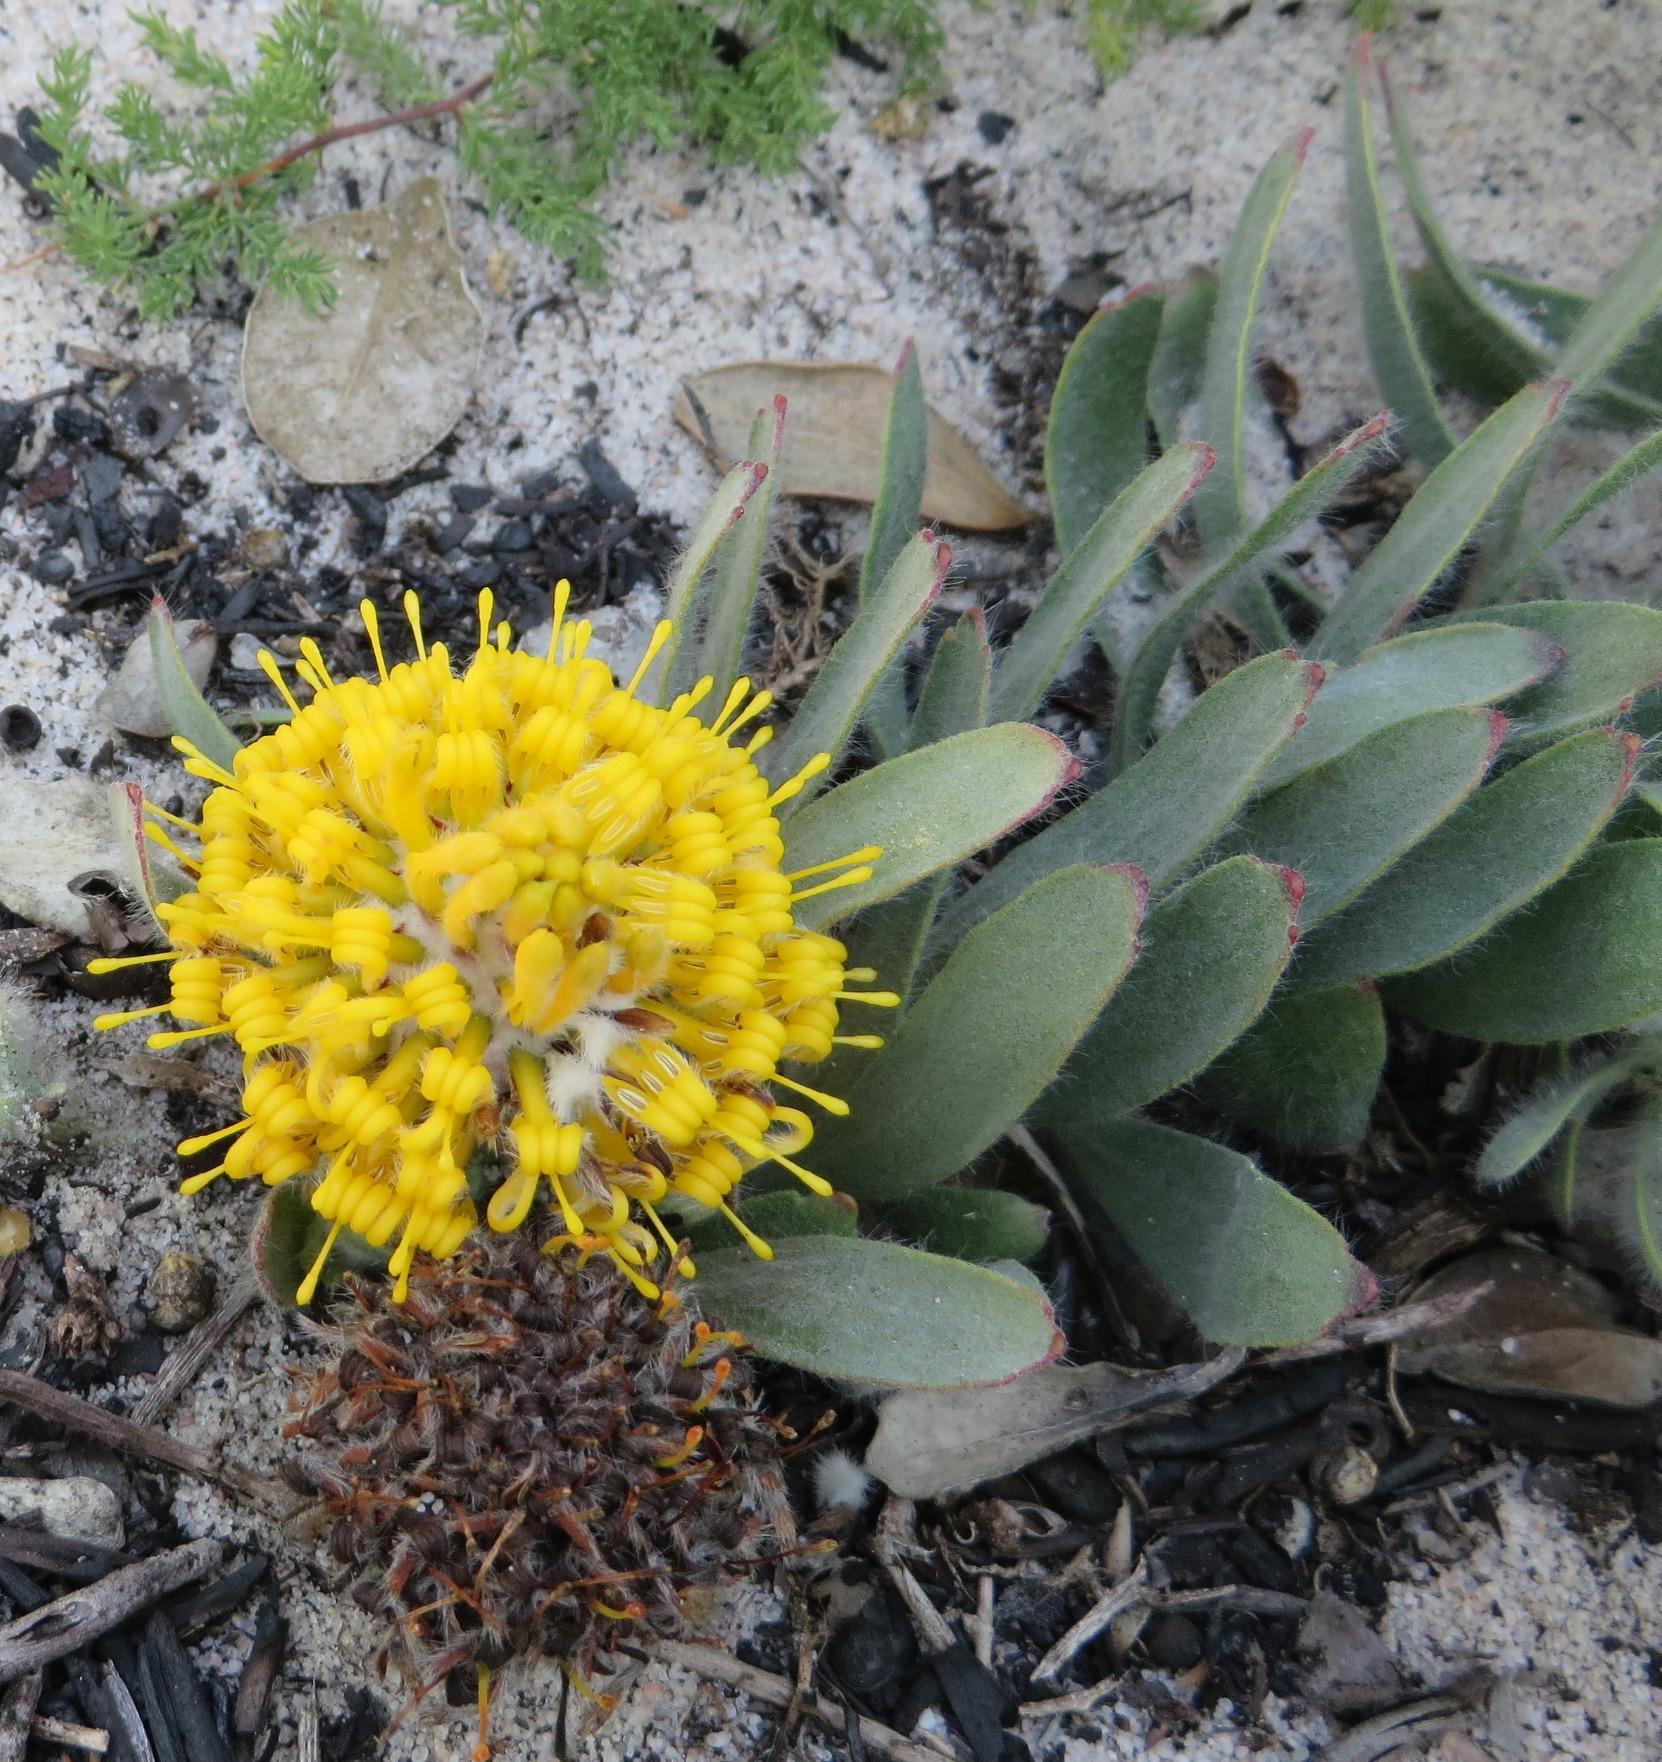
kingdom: Plantae
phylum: Tracheophyta
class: Magnoliopsida
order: Proteales
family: Proteaceae
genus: Leucospermum
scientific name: Leucospermum hypophyllocarpodendron
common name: Snakestem pincushion
